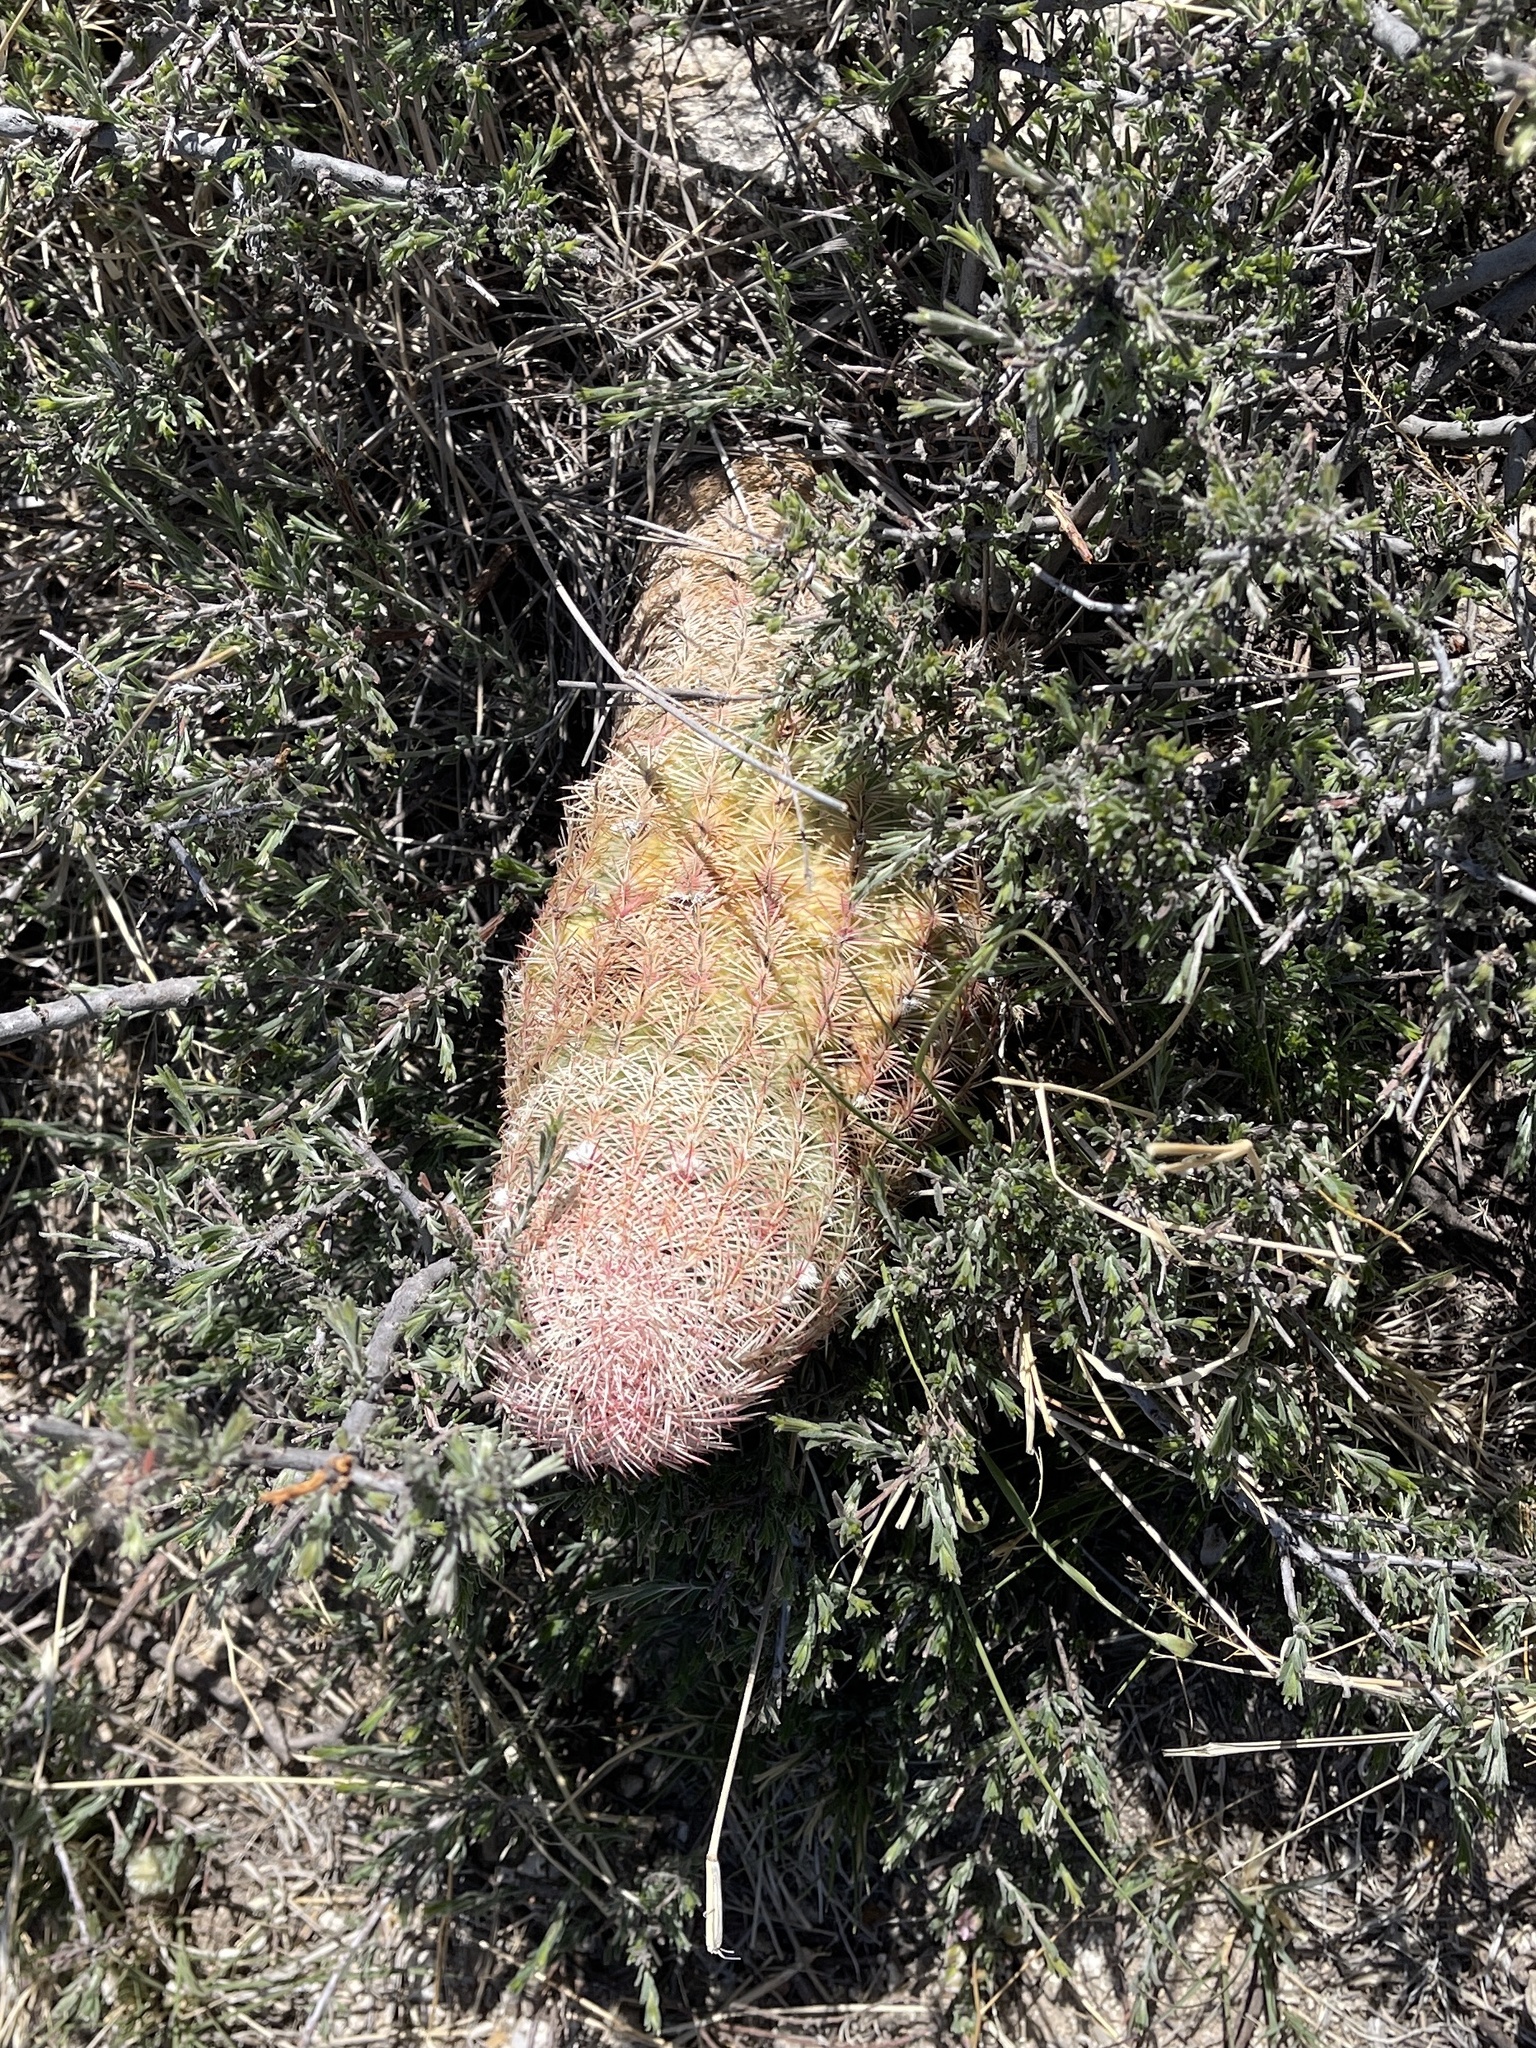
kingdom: Plantae
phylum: Tracheophyta
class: Magnoliopsida
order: Caryophyllales
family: Cactaceae
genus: Echinocereus
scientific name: Echinocereus rigidissimus
